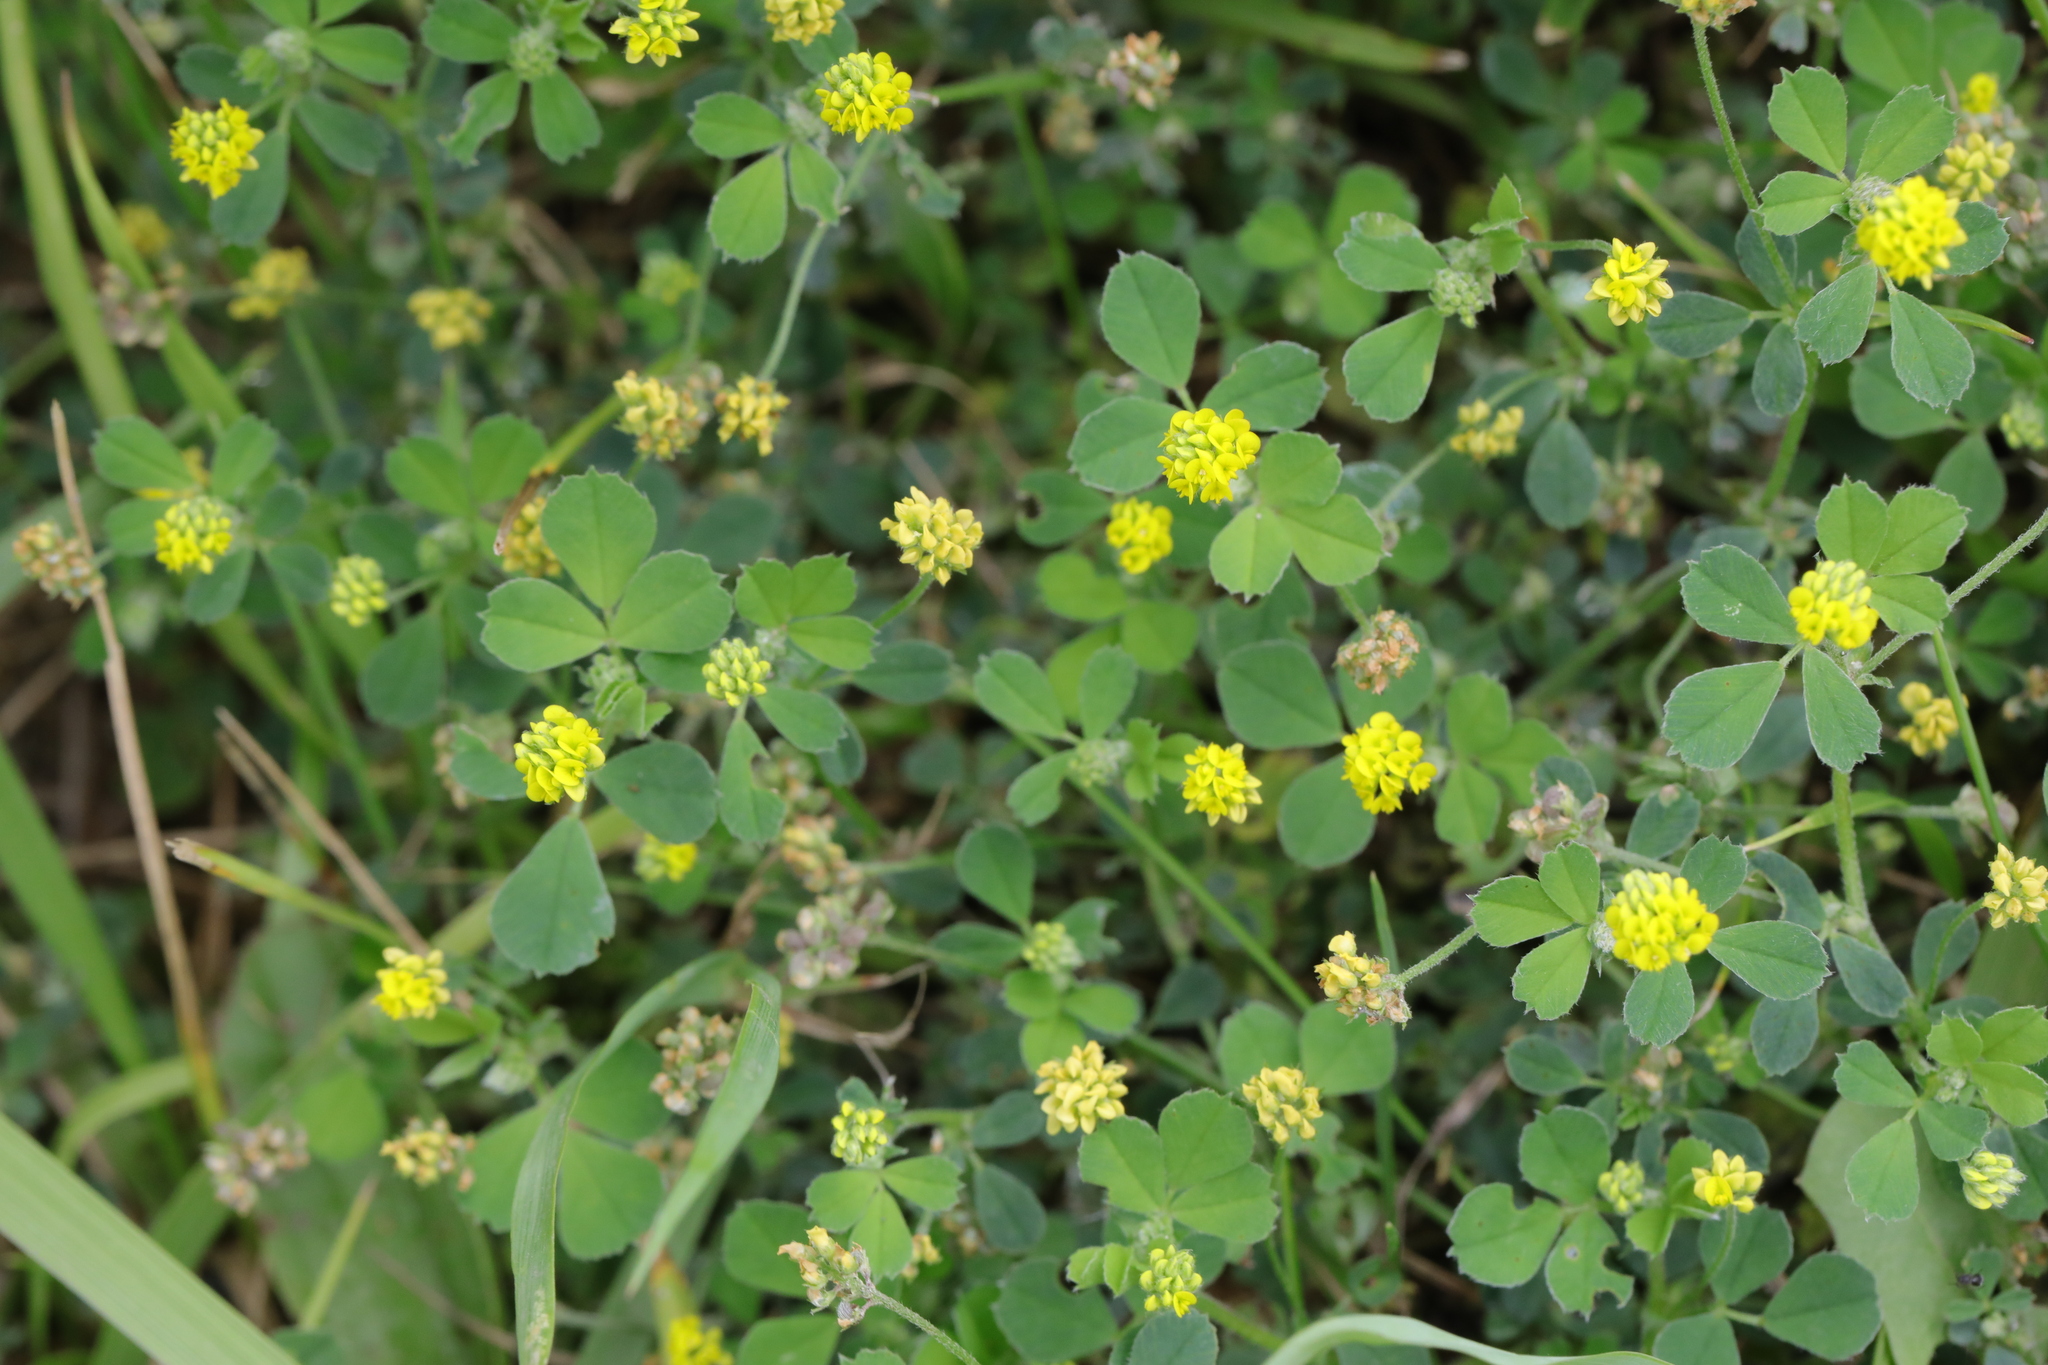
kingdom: Plantae
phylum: Tracheophyta
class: Magnoliopsida
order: Fabales
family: Fabaceae
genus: Medicago
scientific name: Medicago lupulina
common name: Black medick
